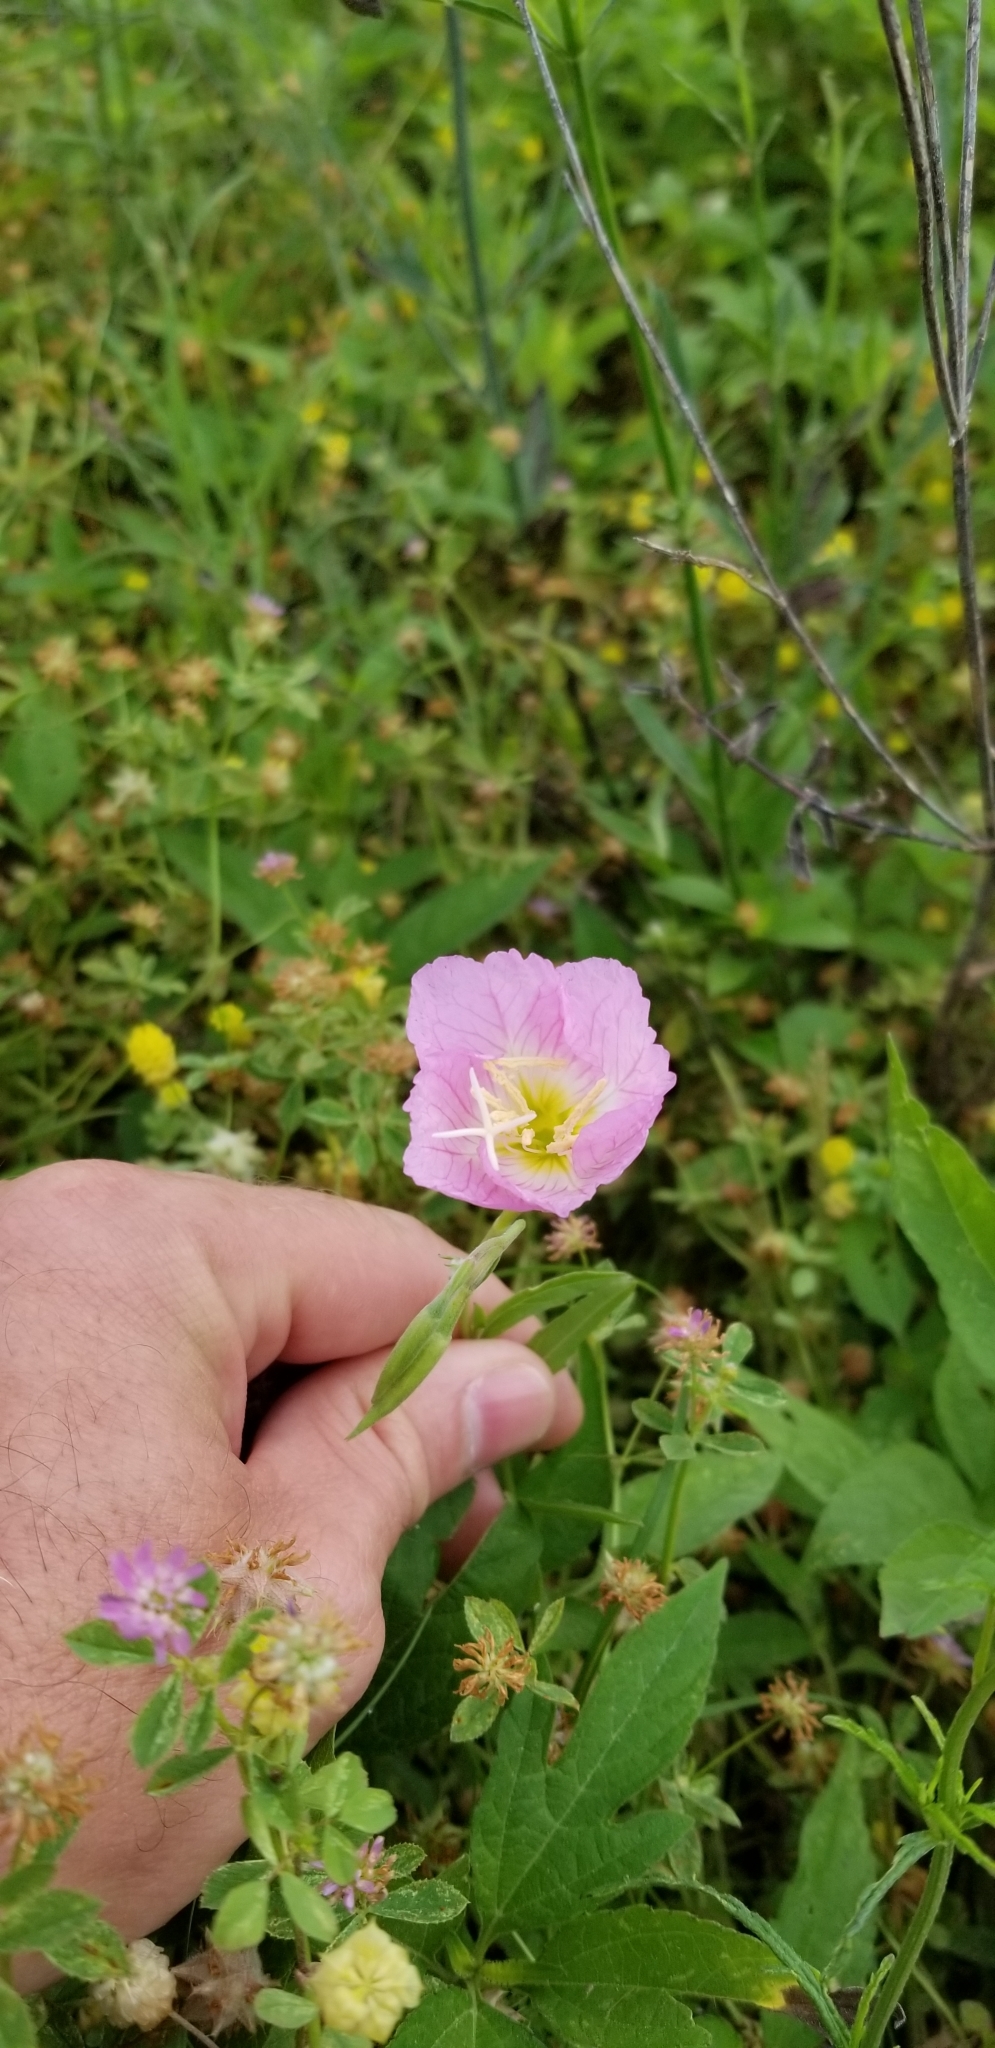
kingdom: Plantae
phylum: Tracheophyta
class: Magnoliopsida
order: Myrtales
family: Onagraceae
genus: Oenothera
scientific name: Oenothera speciosa
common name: White evening-primrose
